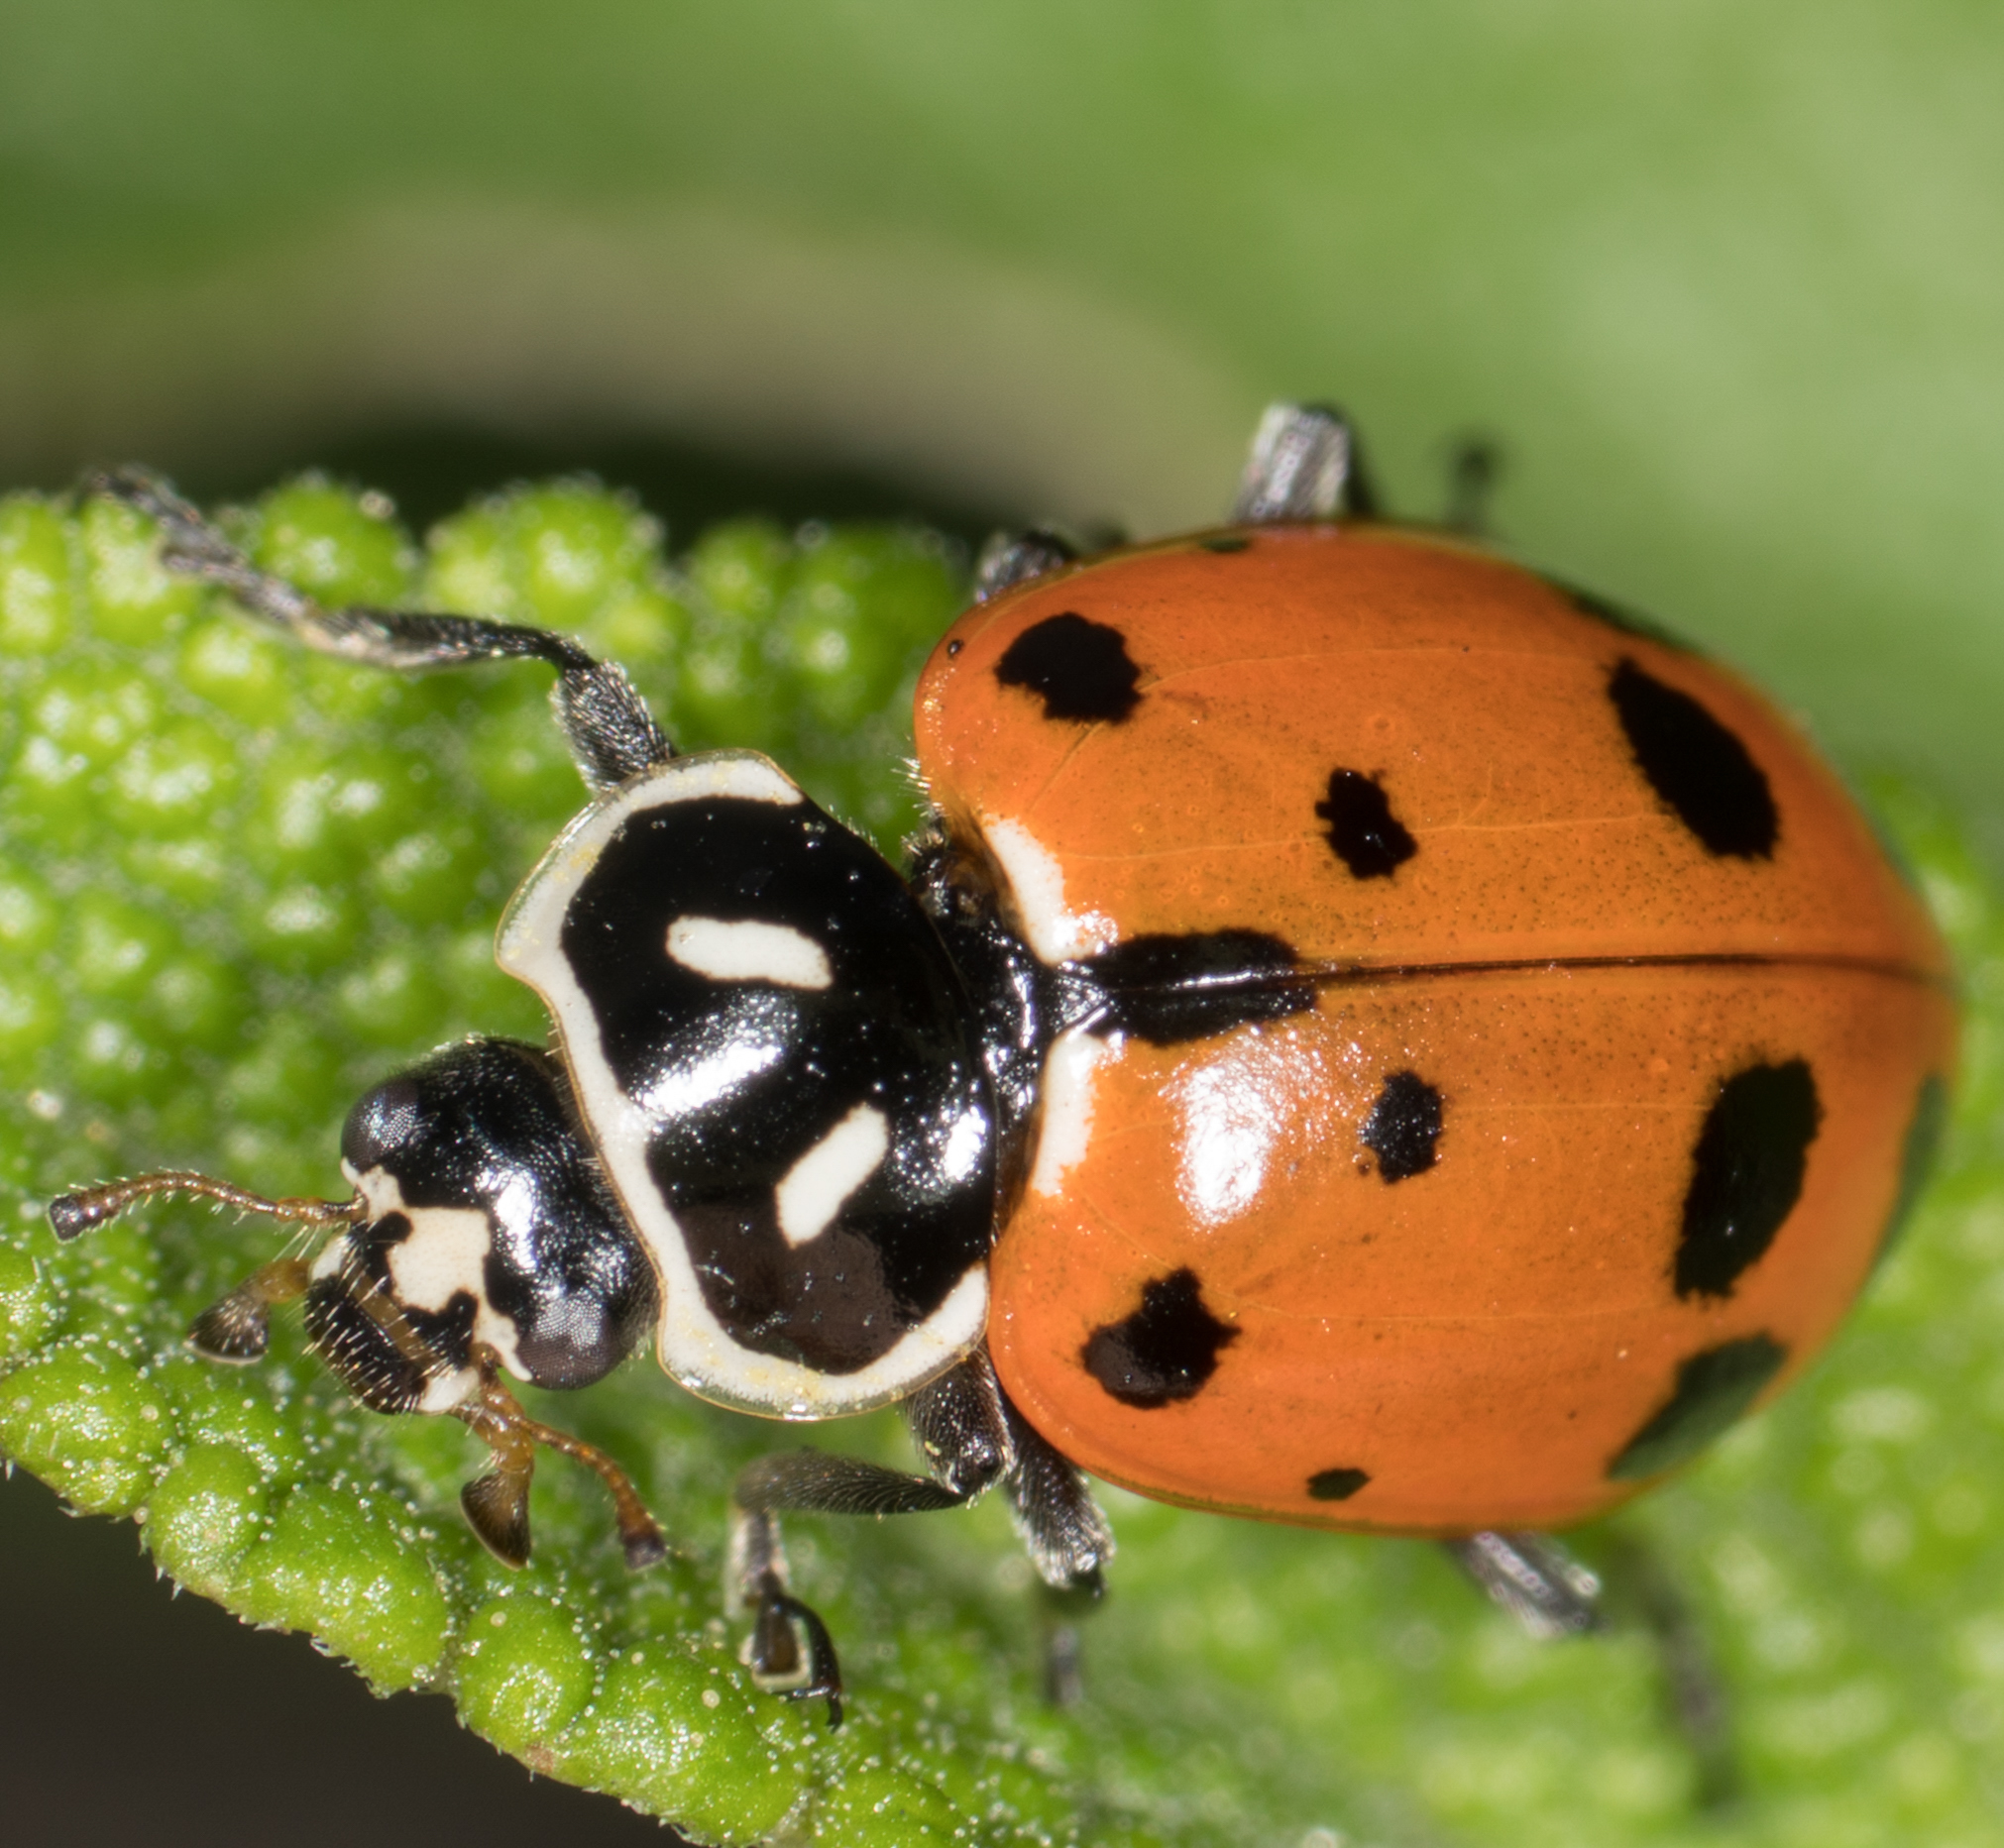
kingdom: Animalia
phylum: Arthropoda
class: Insecta
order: Coleoptera
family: Coccinellidae
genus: Hippodamia
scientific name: Hippodamia convergens
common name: Convergent lady beetle
